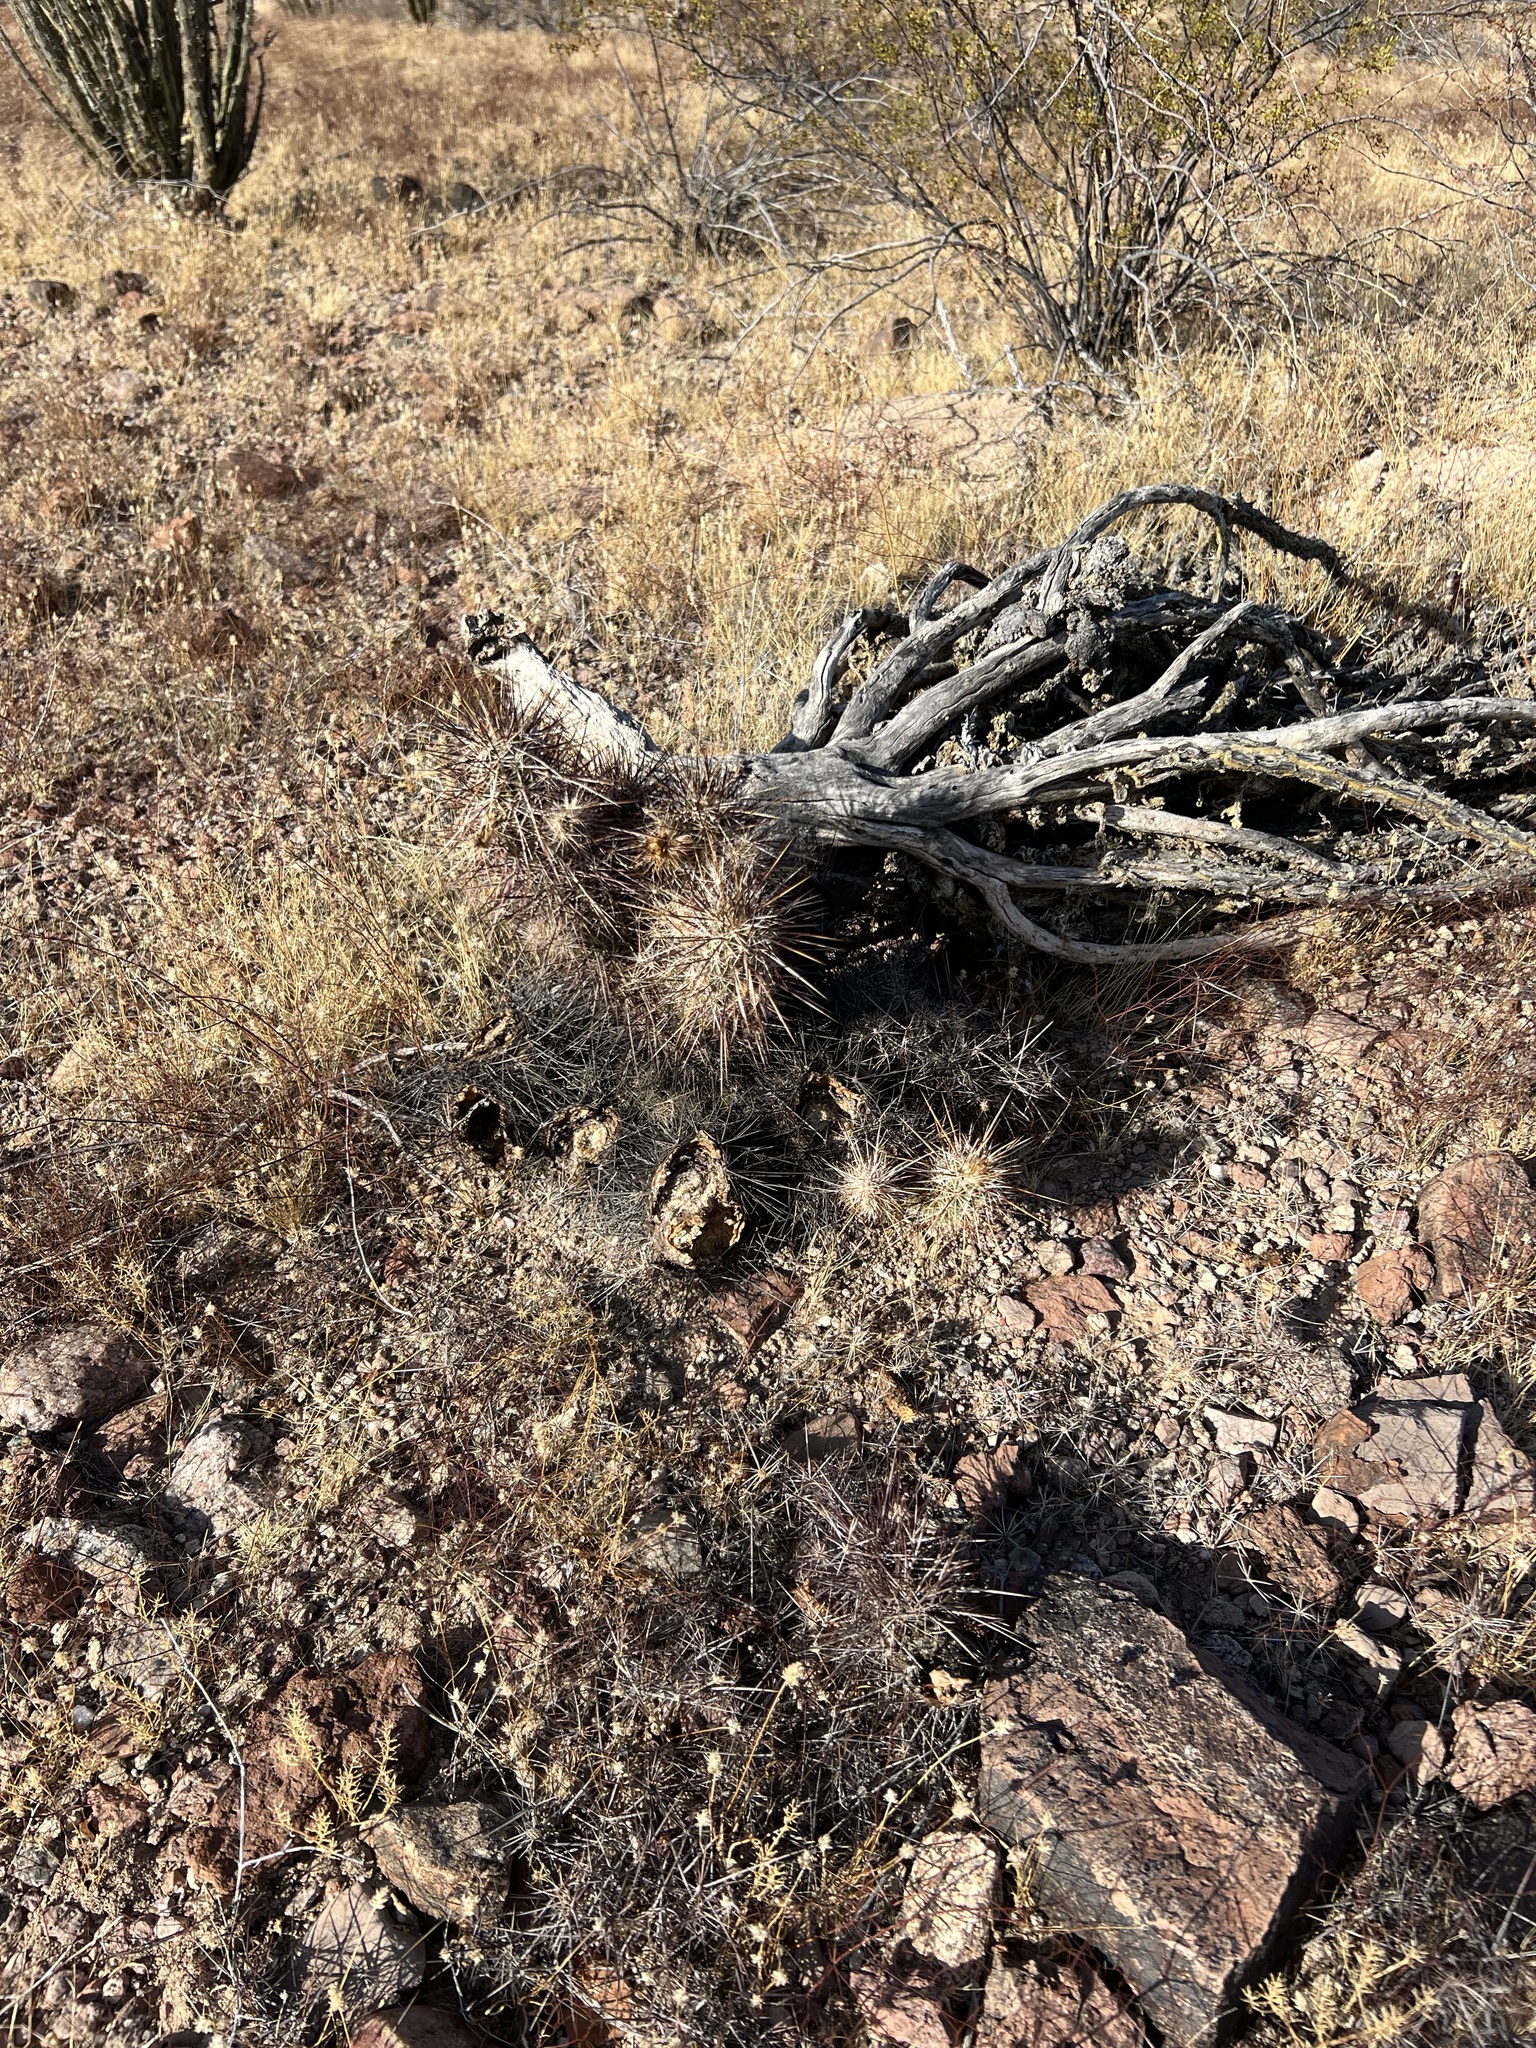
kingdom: Plantae
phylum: Tracheophyta
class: Magnoliopsida
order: Caryophyllales
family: Cactaceae
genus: Echinocereus
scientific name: Echinocereus engelmannii
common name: Engelmann's hedgehog cactus
